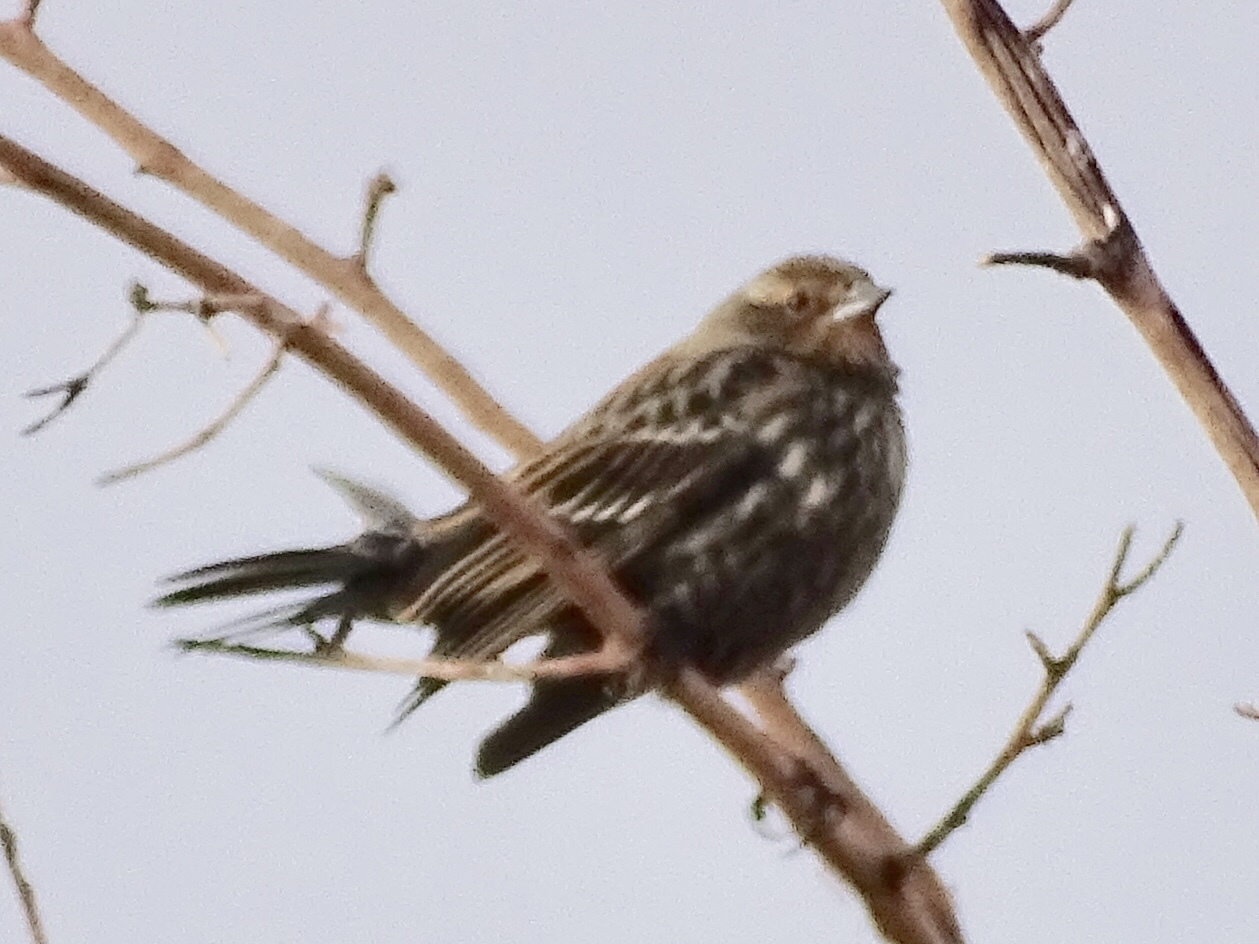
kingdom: Animalia
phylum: Chordata
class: Aves
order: Passeriformes
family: Icteridae
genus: Agelaius
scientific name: Agelaius phoeniceus
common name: Red-winged blackbird
